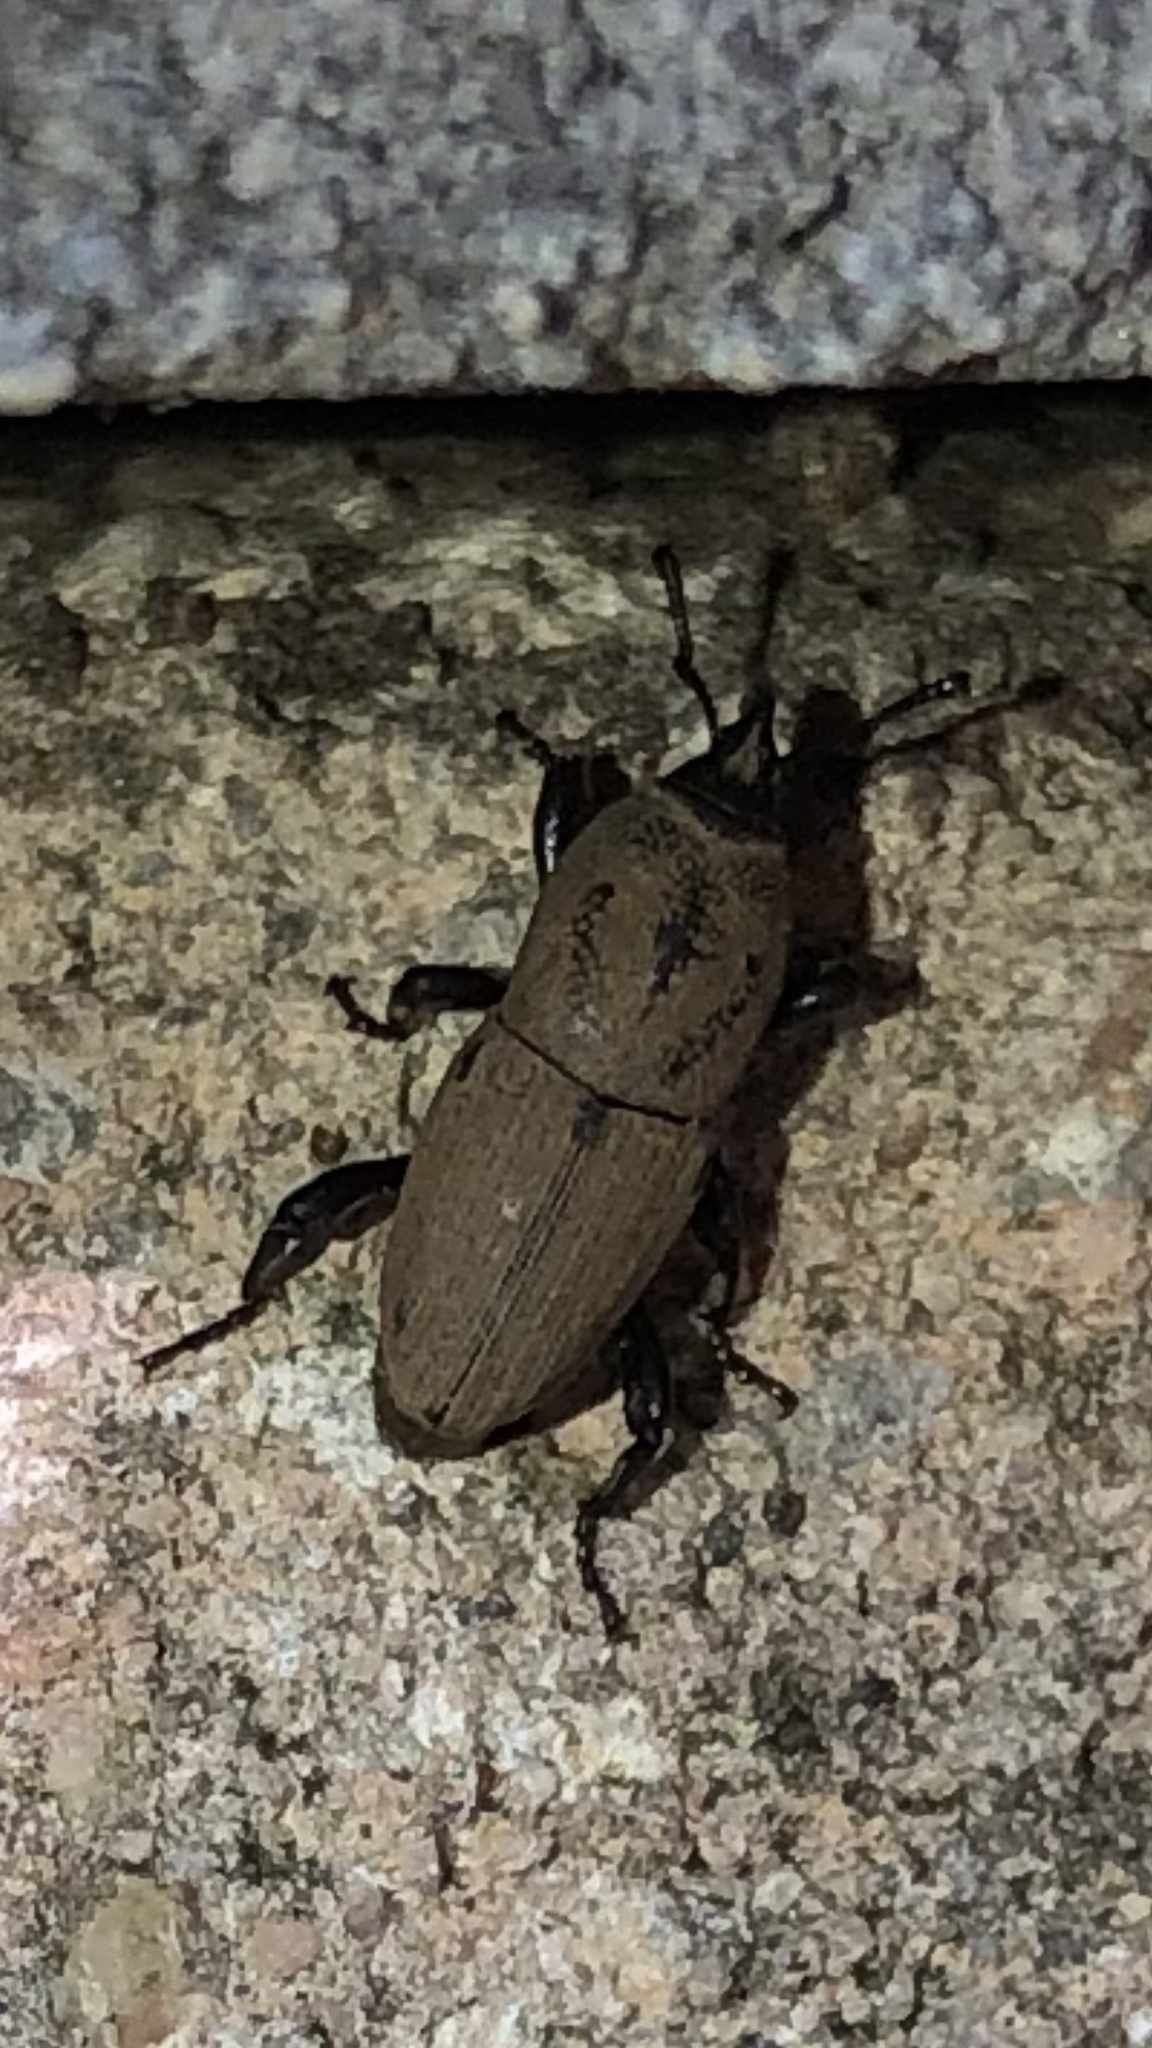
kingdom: Animalia
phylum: Arthropoda
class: Insecta
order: Coleoptera
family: Dryophthoridae
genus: Sphenophorus
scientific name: Sphenophorus coesifrons
